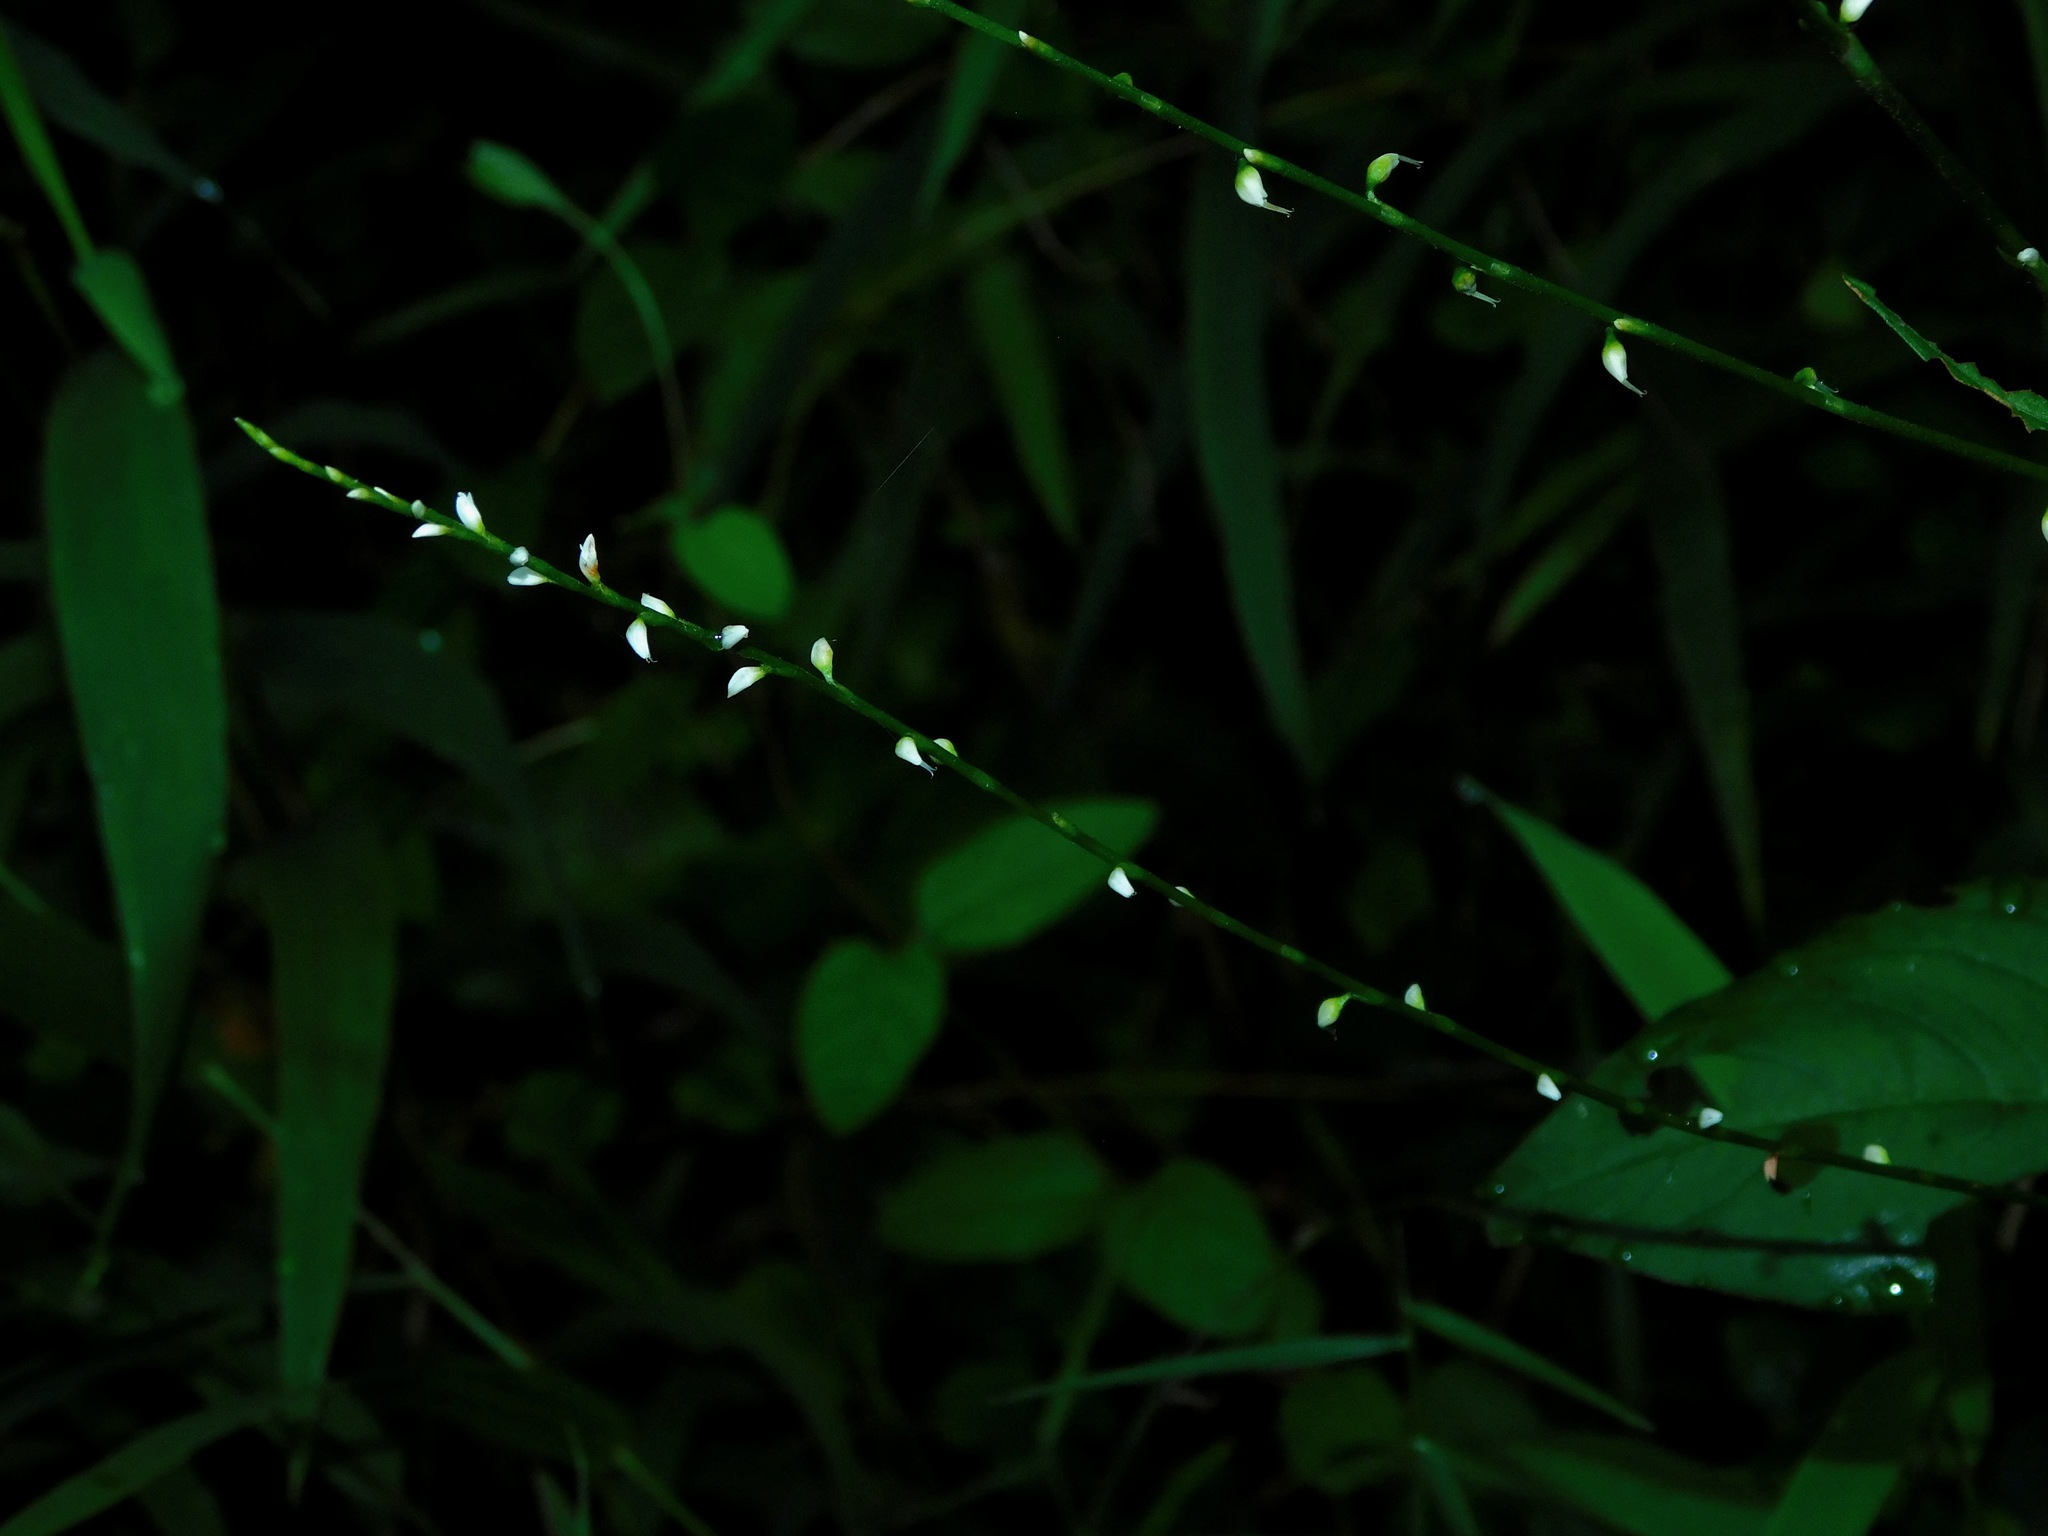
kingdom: Plantae
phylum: Tracheophyta
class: Magnoliopsida
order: Caryophyllales
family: Polygonaceae
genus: Persicaria
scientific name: Persicaria virginiana
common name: Jumpseed
